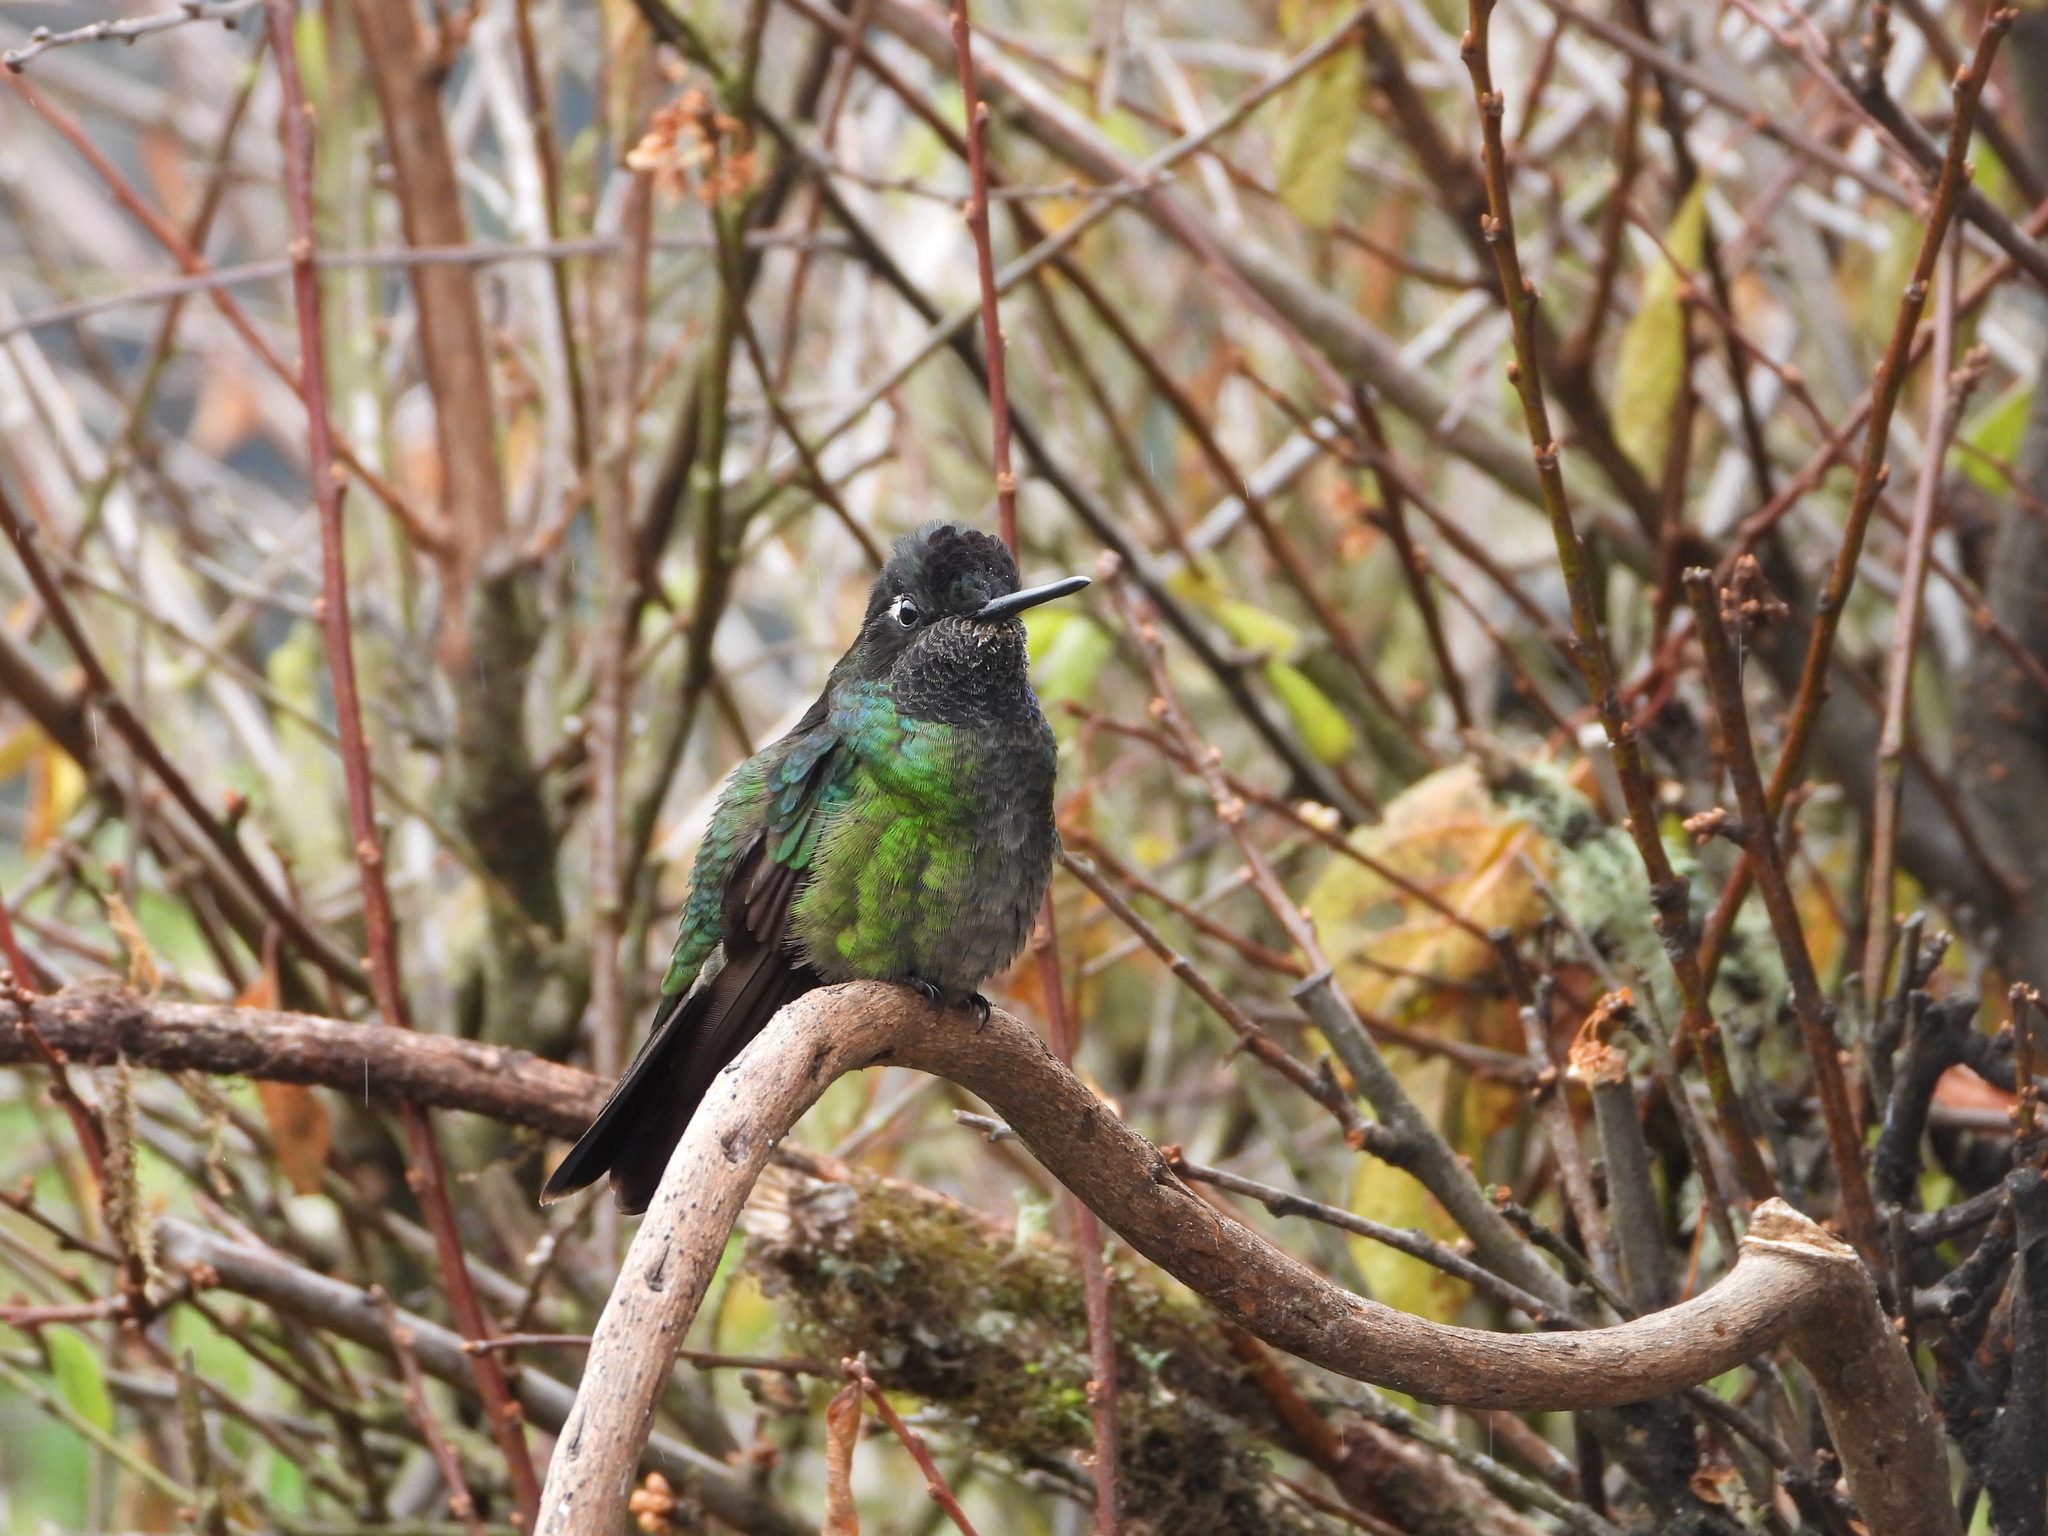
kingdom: Animalia
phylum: Chordata
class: Aves
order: Apodiformes
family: Trochilidae
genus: Eugenes
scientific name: Eugenes spectabilis
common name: Talamanca hummingbird
